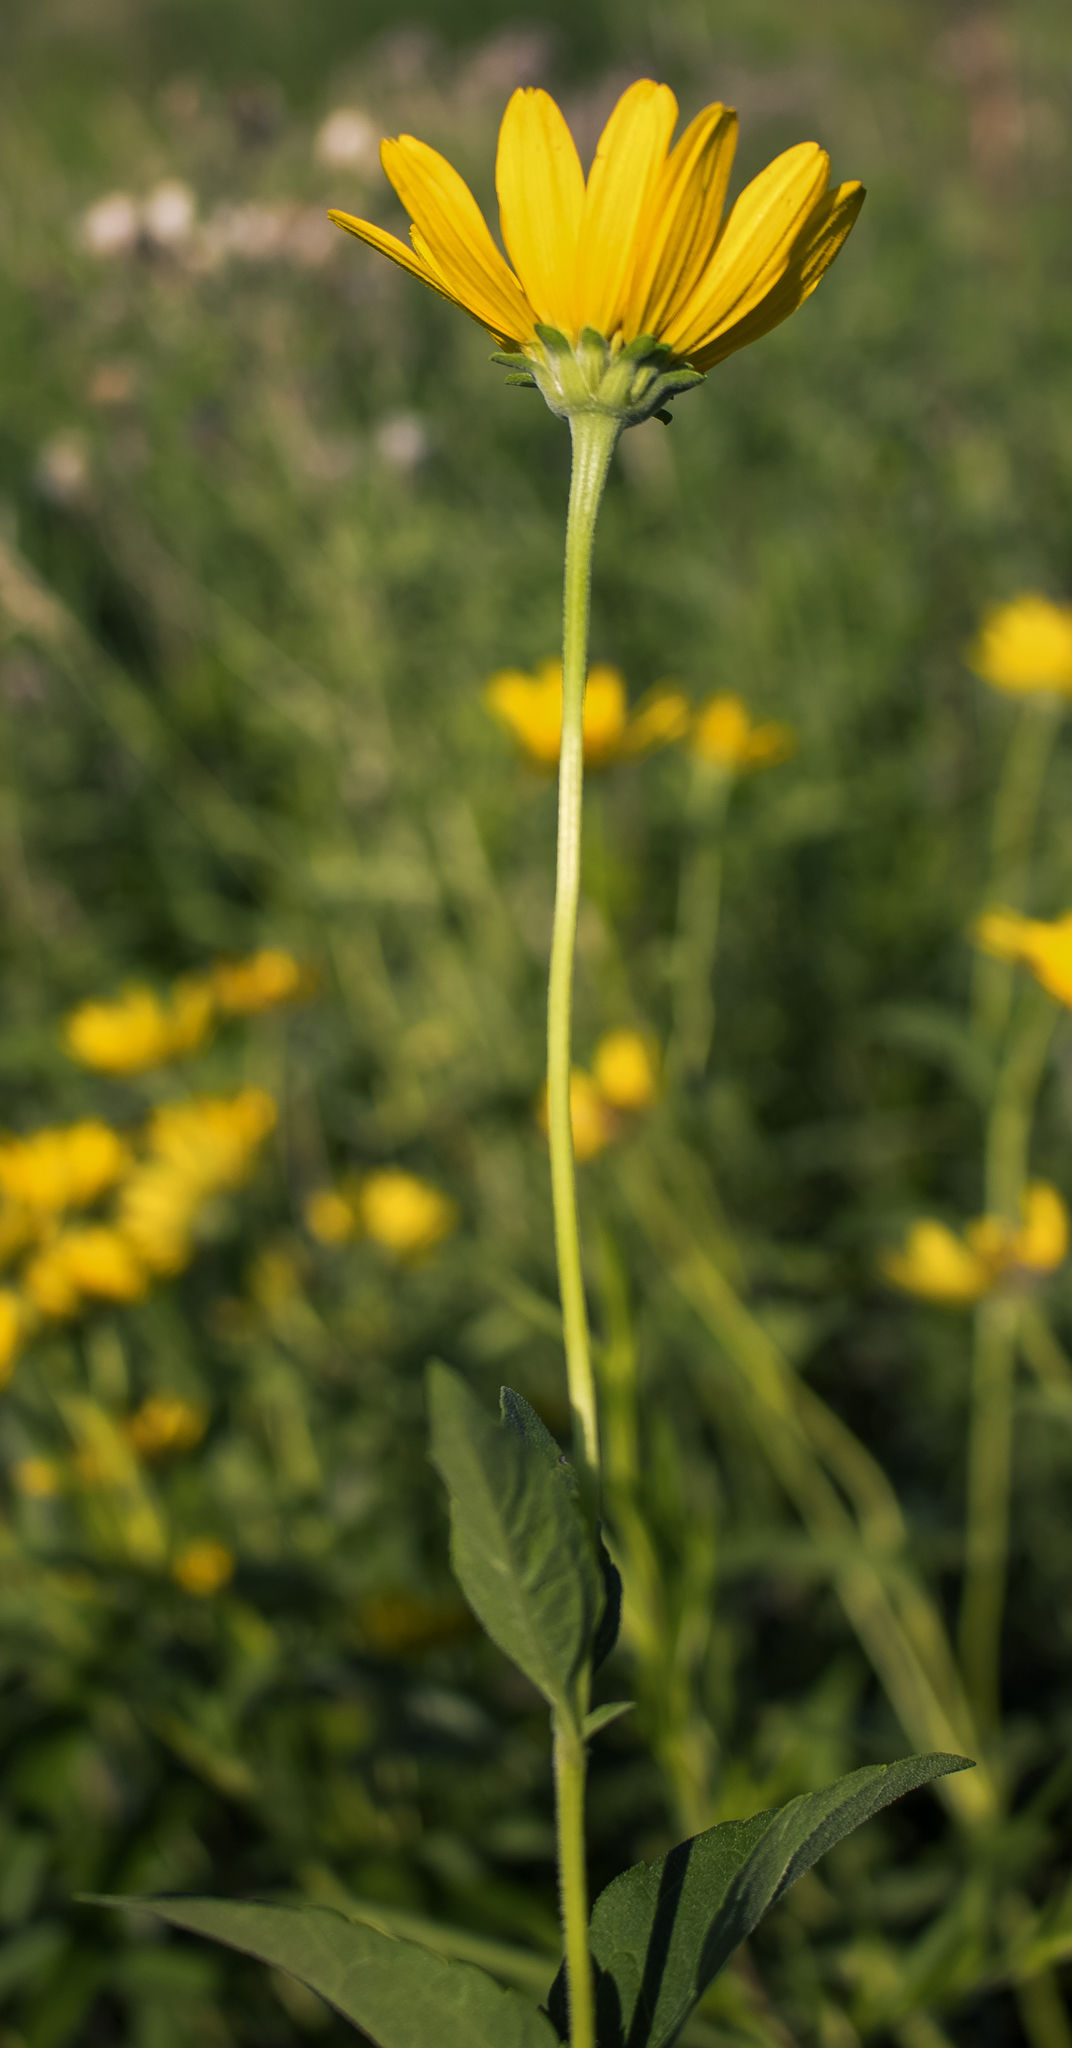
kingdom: Plantae
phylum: Tracheophyta
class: Magnoliopsida
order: Asterales
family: Asteraceae
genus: Heliopsis
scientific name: Heliopsis helianthoides
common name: False sunflower
